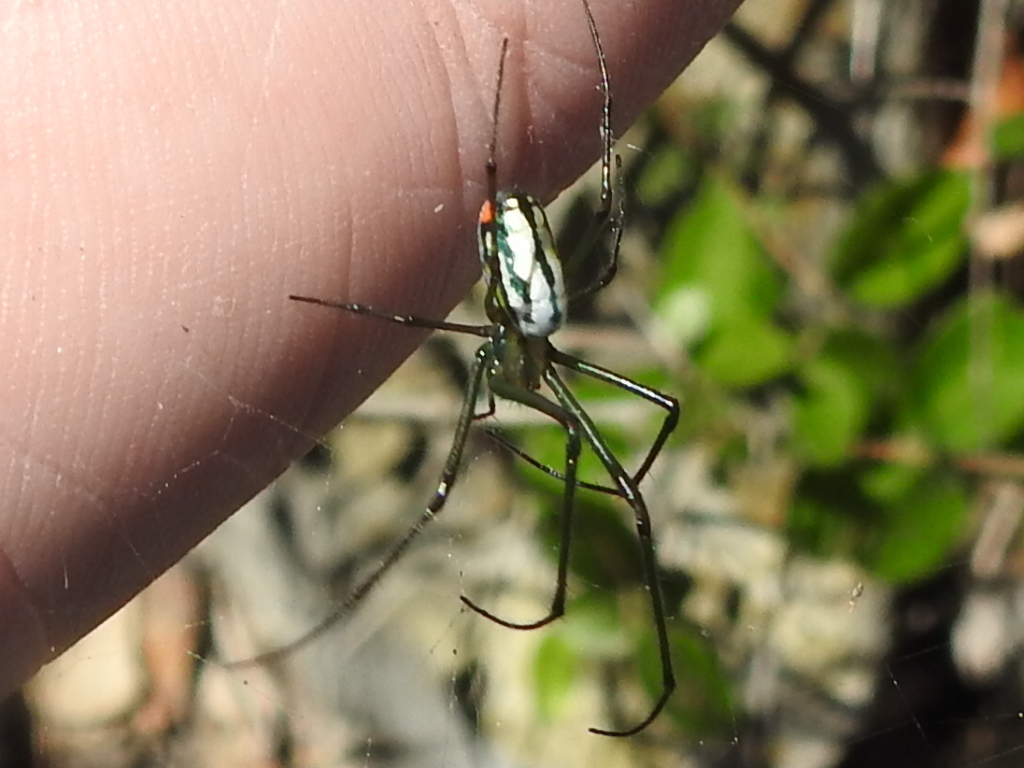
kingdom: Animalia
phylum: Arthropoda
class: Arachnida
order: Araneae
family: Tetragnathidae
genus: Leucauge
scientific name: Leucauge argyrobapta
